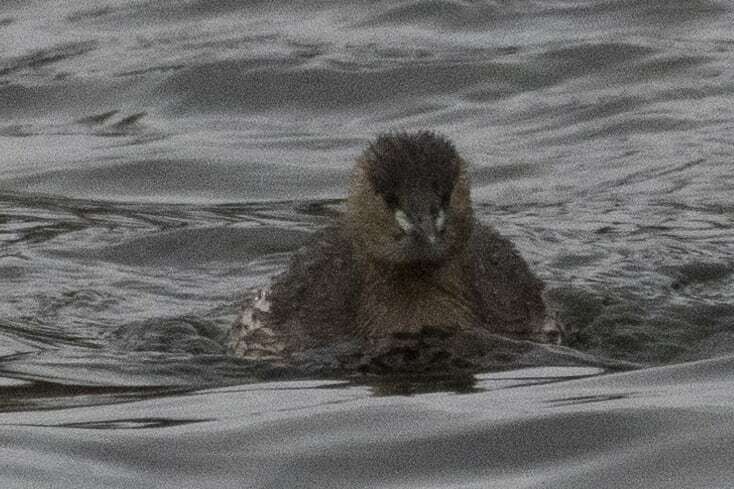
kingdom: Animalia
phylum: Chordata
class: Aves
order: Podicipediformes
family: Podicipedidae
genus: Tachybaptus
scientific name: Tachybaptus ruficollis
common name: Little grebe
